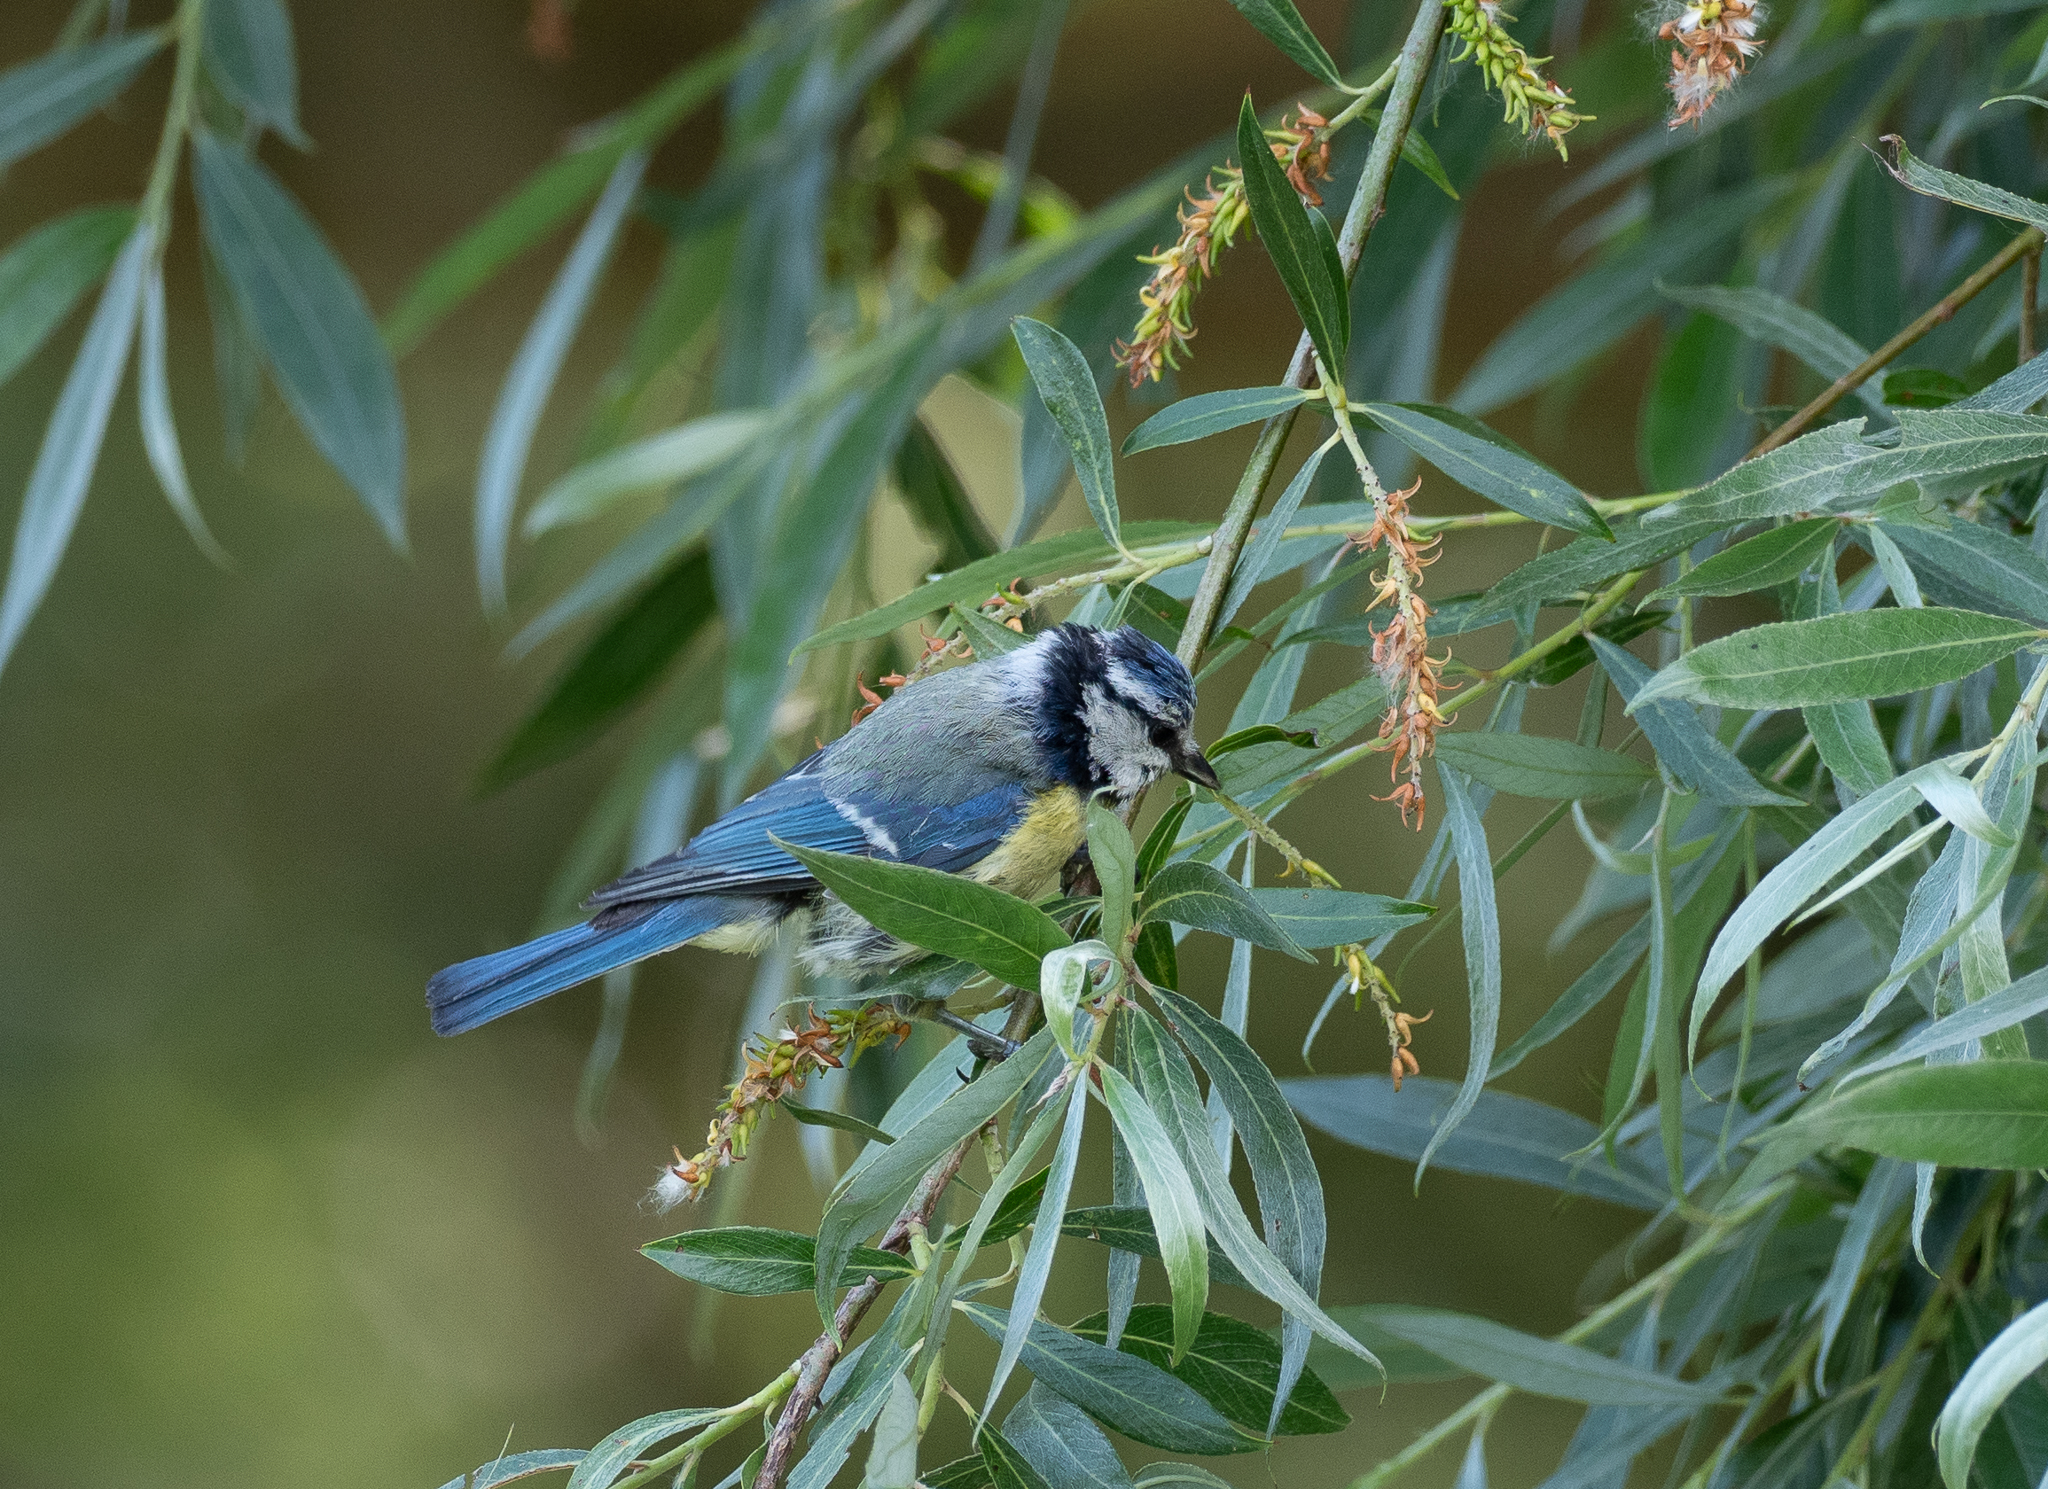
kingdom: Animalia
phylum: Chordata
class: Aves
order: Passeriformes
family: Paridae
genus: Cyanistes
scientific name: Cyanistes caeruleus
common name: Eurasian blue tit
